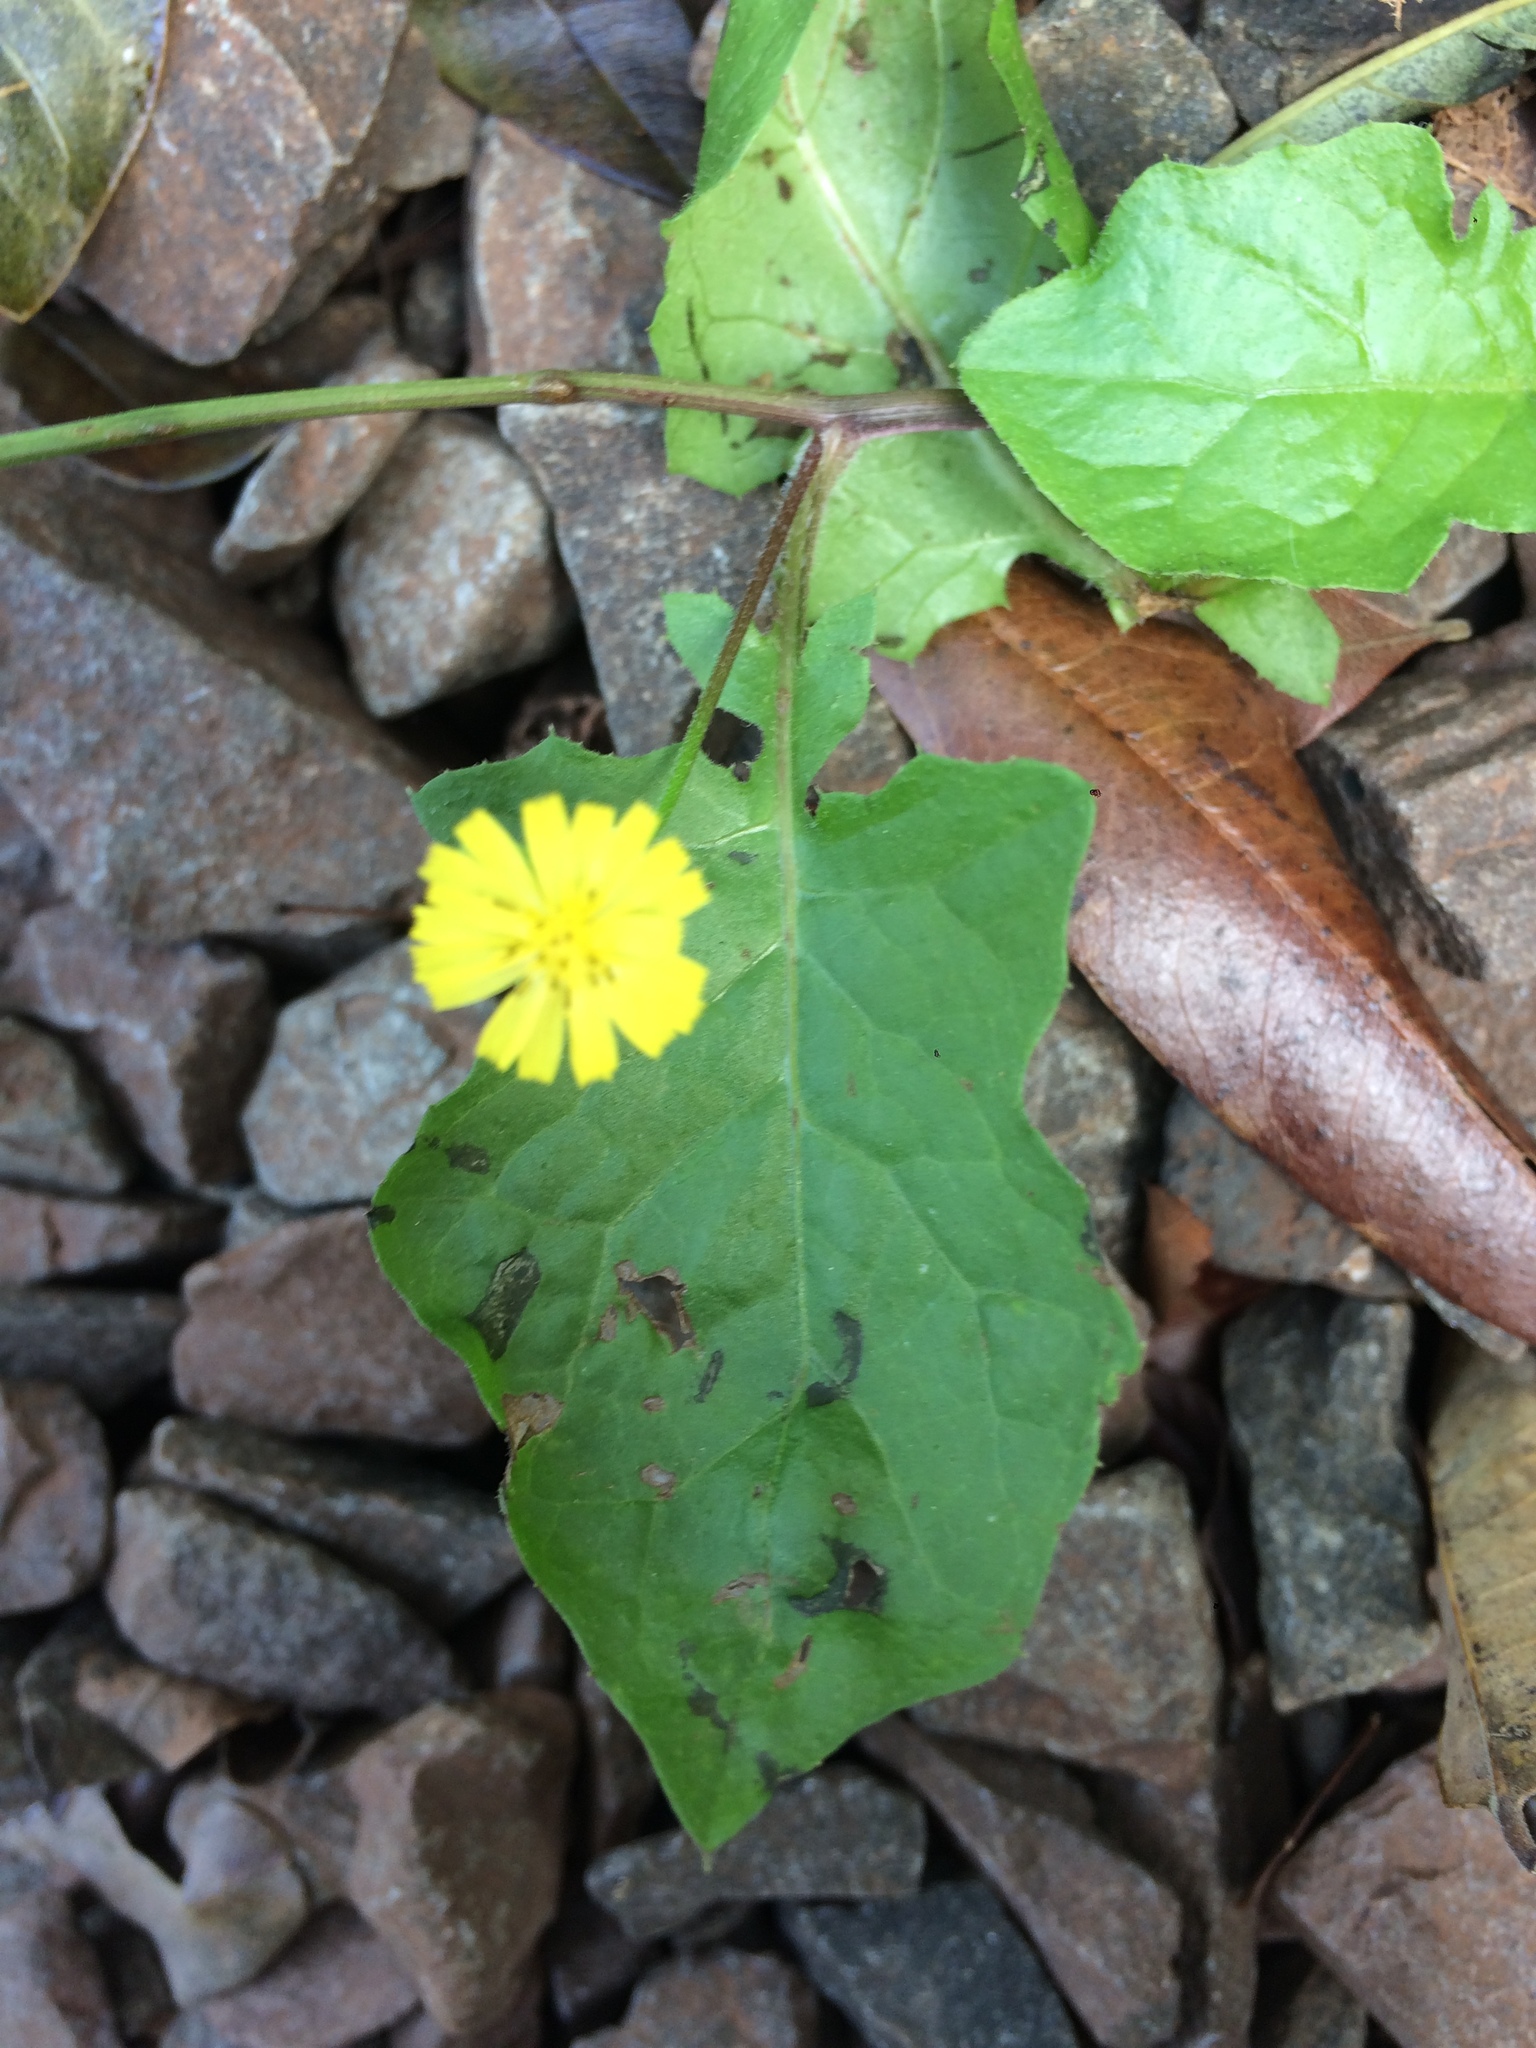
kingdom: Plantae
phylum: Tracheophyta
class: Magnoliopsida
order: Asterales
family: Asteraceae
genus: Youngia
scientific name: Youngia japonica
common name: Oriental false hawksbeard
